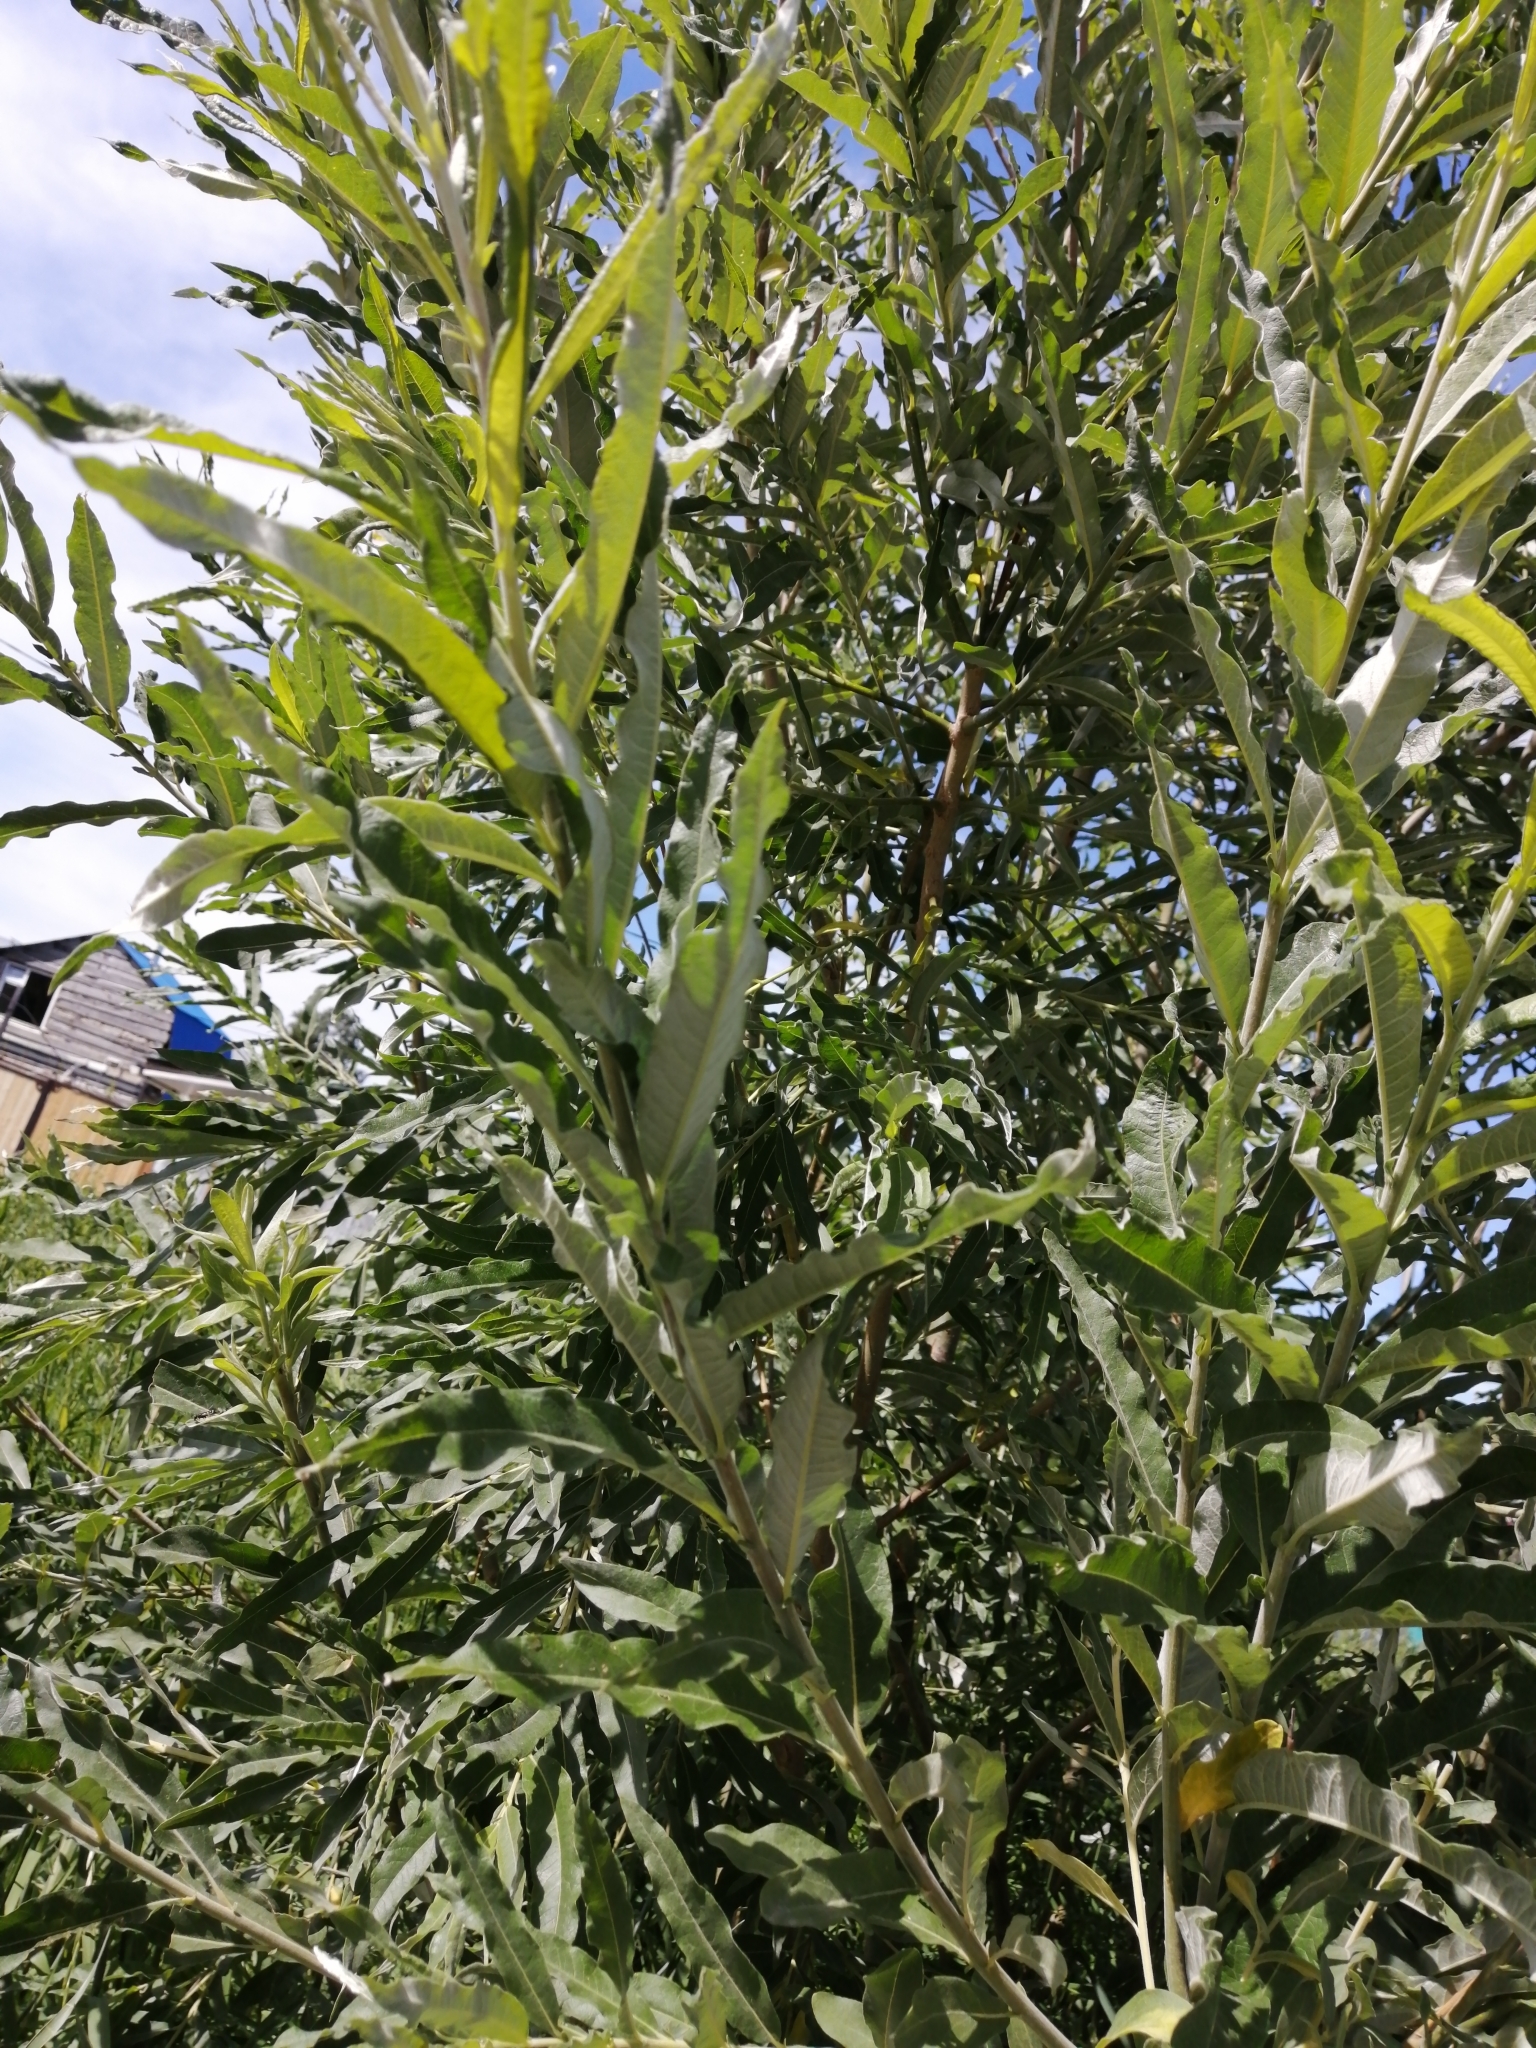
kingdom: Plantae
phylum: Tracheophyta
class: Magnoliopsida
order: Malpighiales
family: Salicaceae
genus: Salix
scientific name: Salix gmelinii
